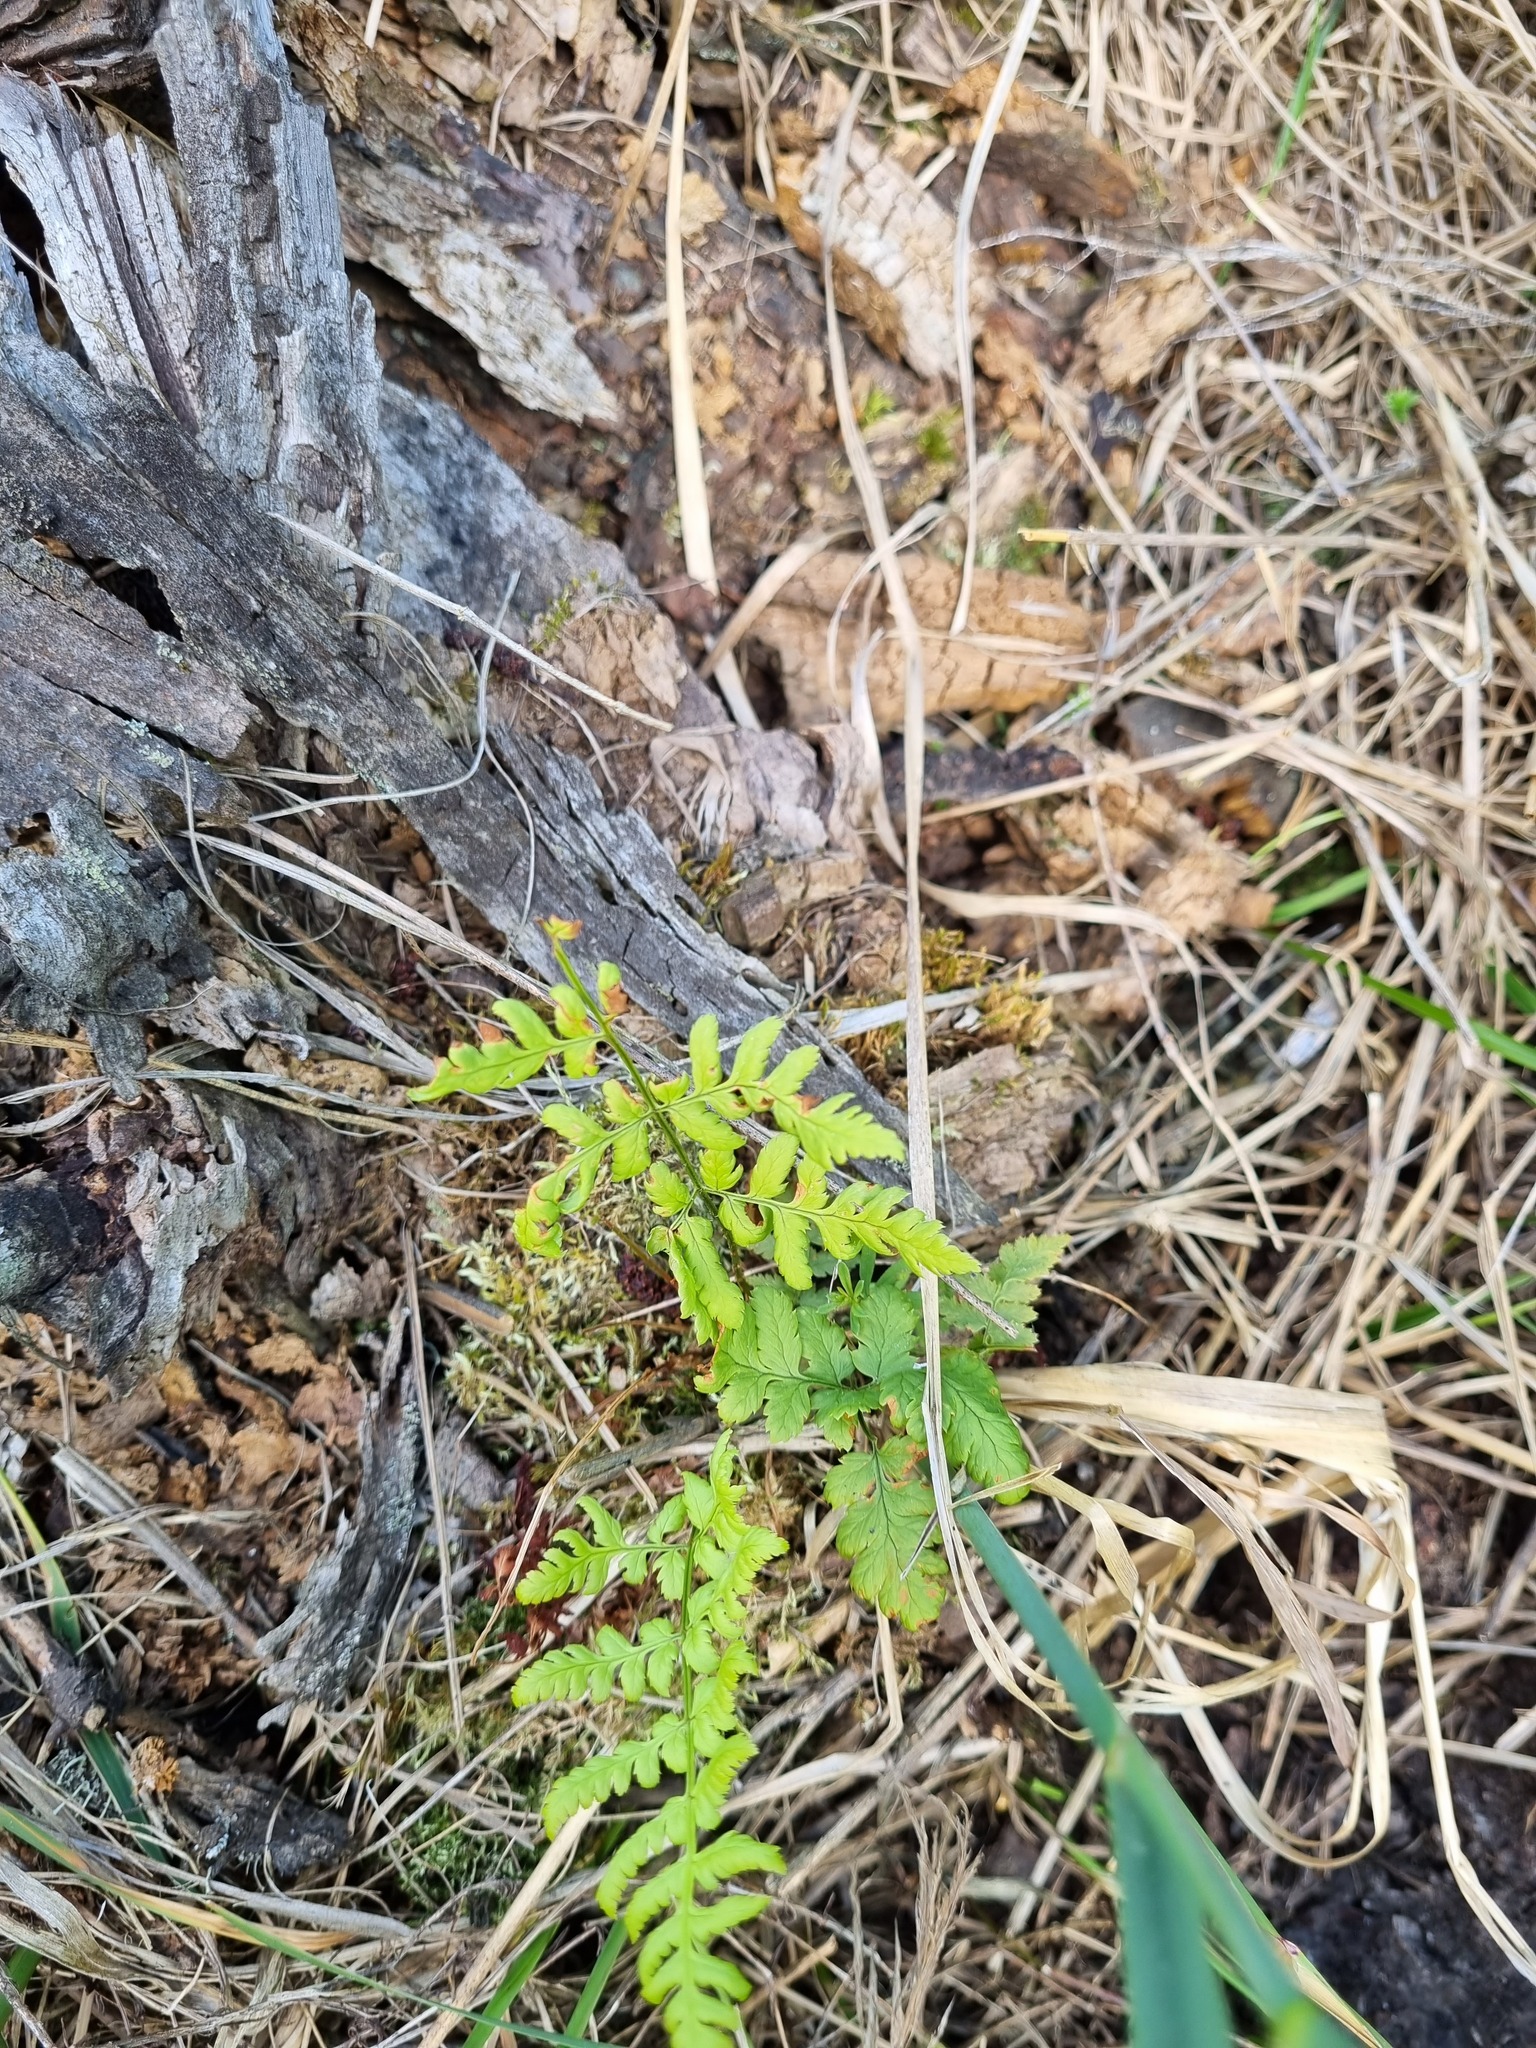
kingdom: Plantae
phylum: Tracheophyta
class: Polypodiopsida
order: Polypodiales
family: Dryopteridaceae
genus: Dryopteris
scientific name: Dryopteris carthusiana
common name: Narrow buckler-fern
